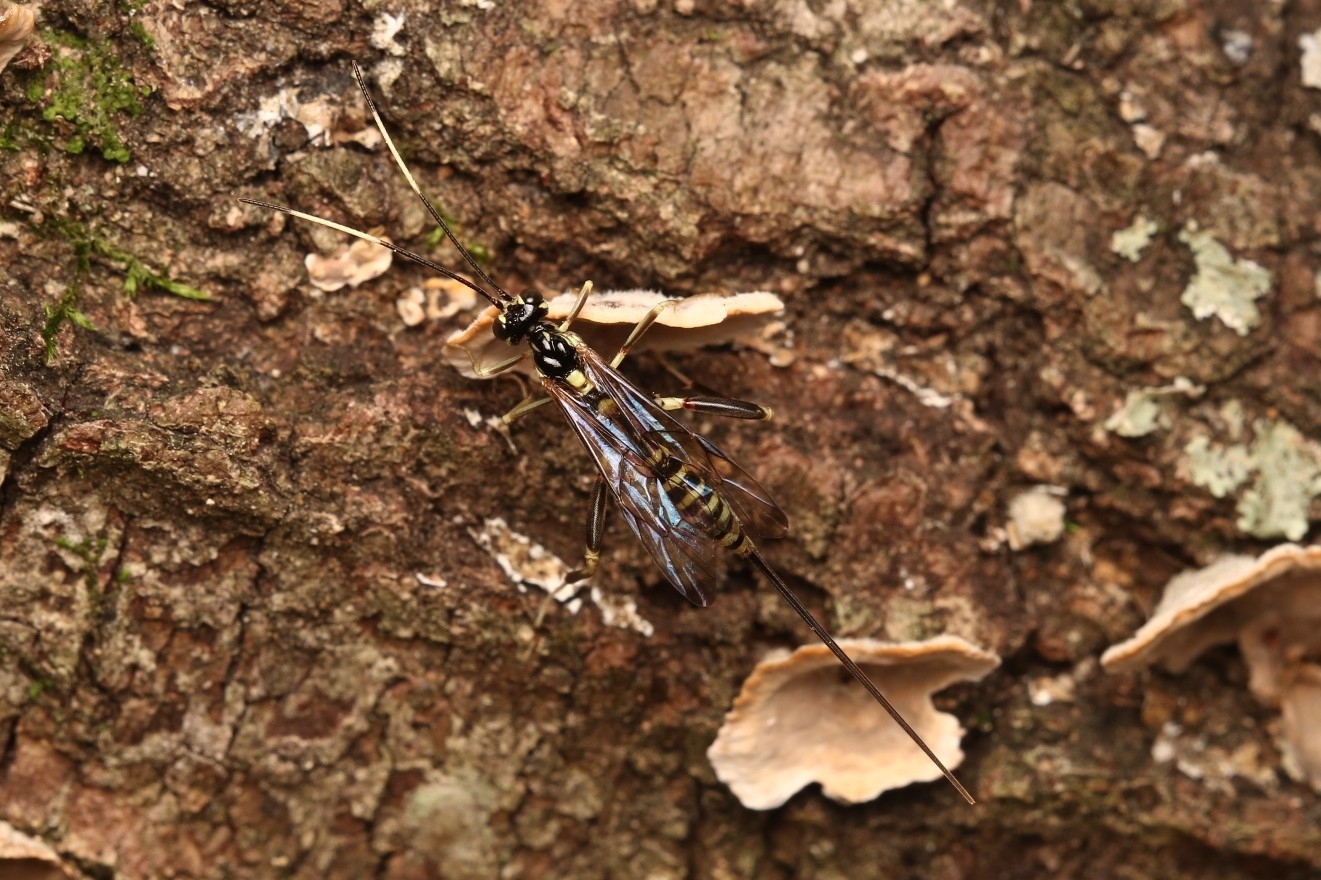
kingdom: Animalia
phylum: Arthropoda
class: Insecta
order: Hymenoptera
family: Ichneumonidae
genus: Arotes
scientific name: Arotes amoenus
